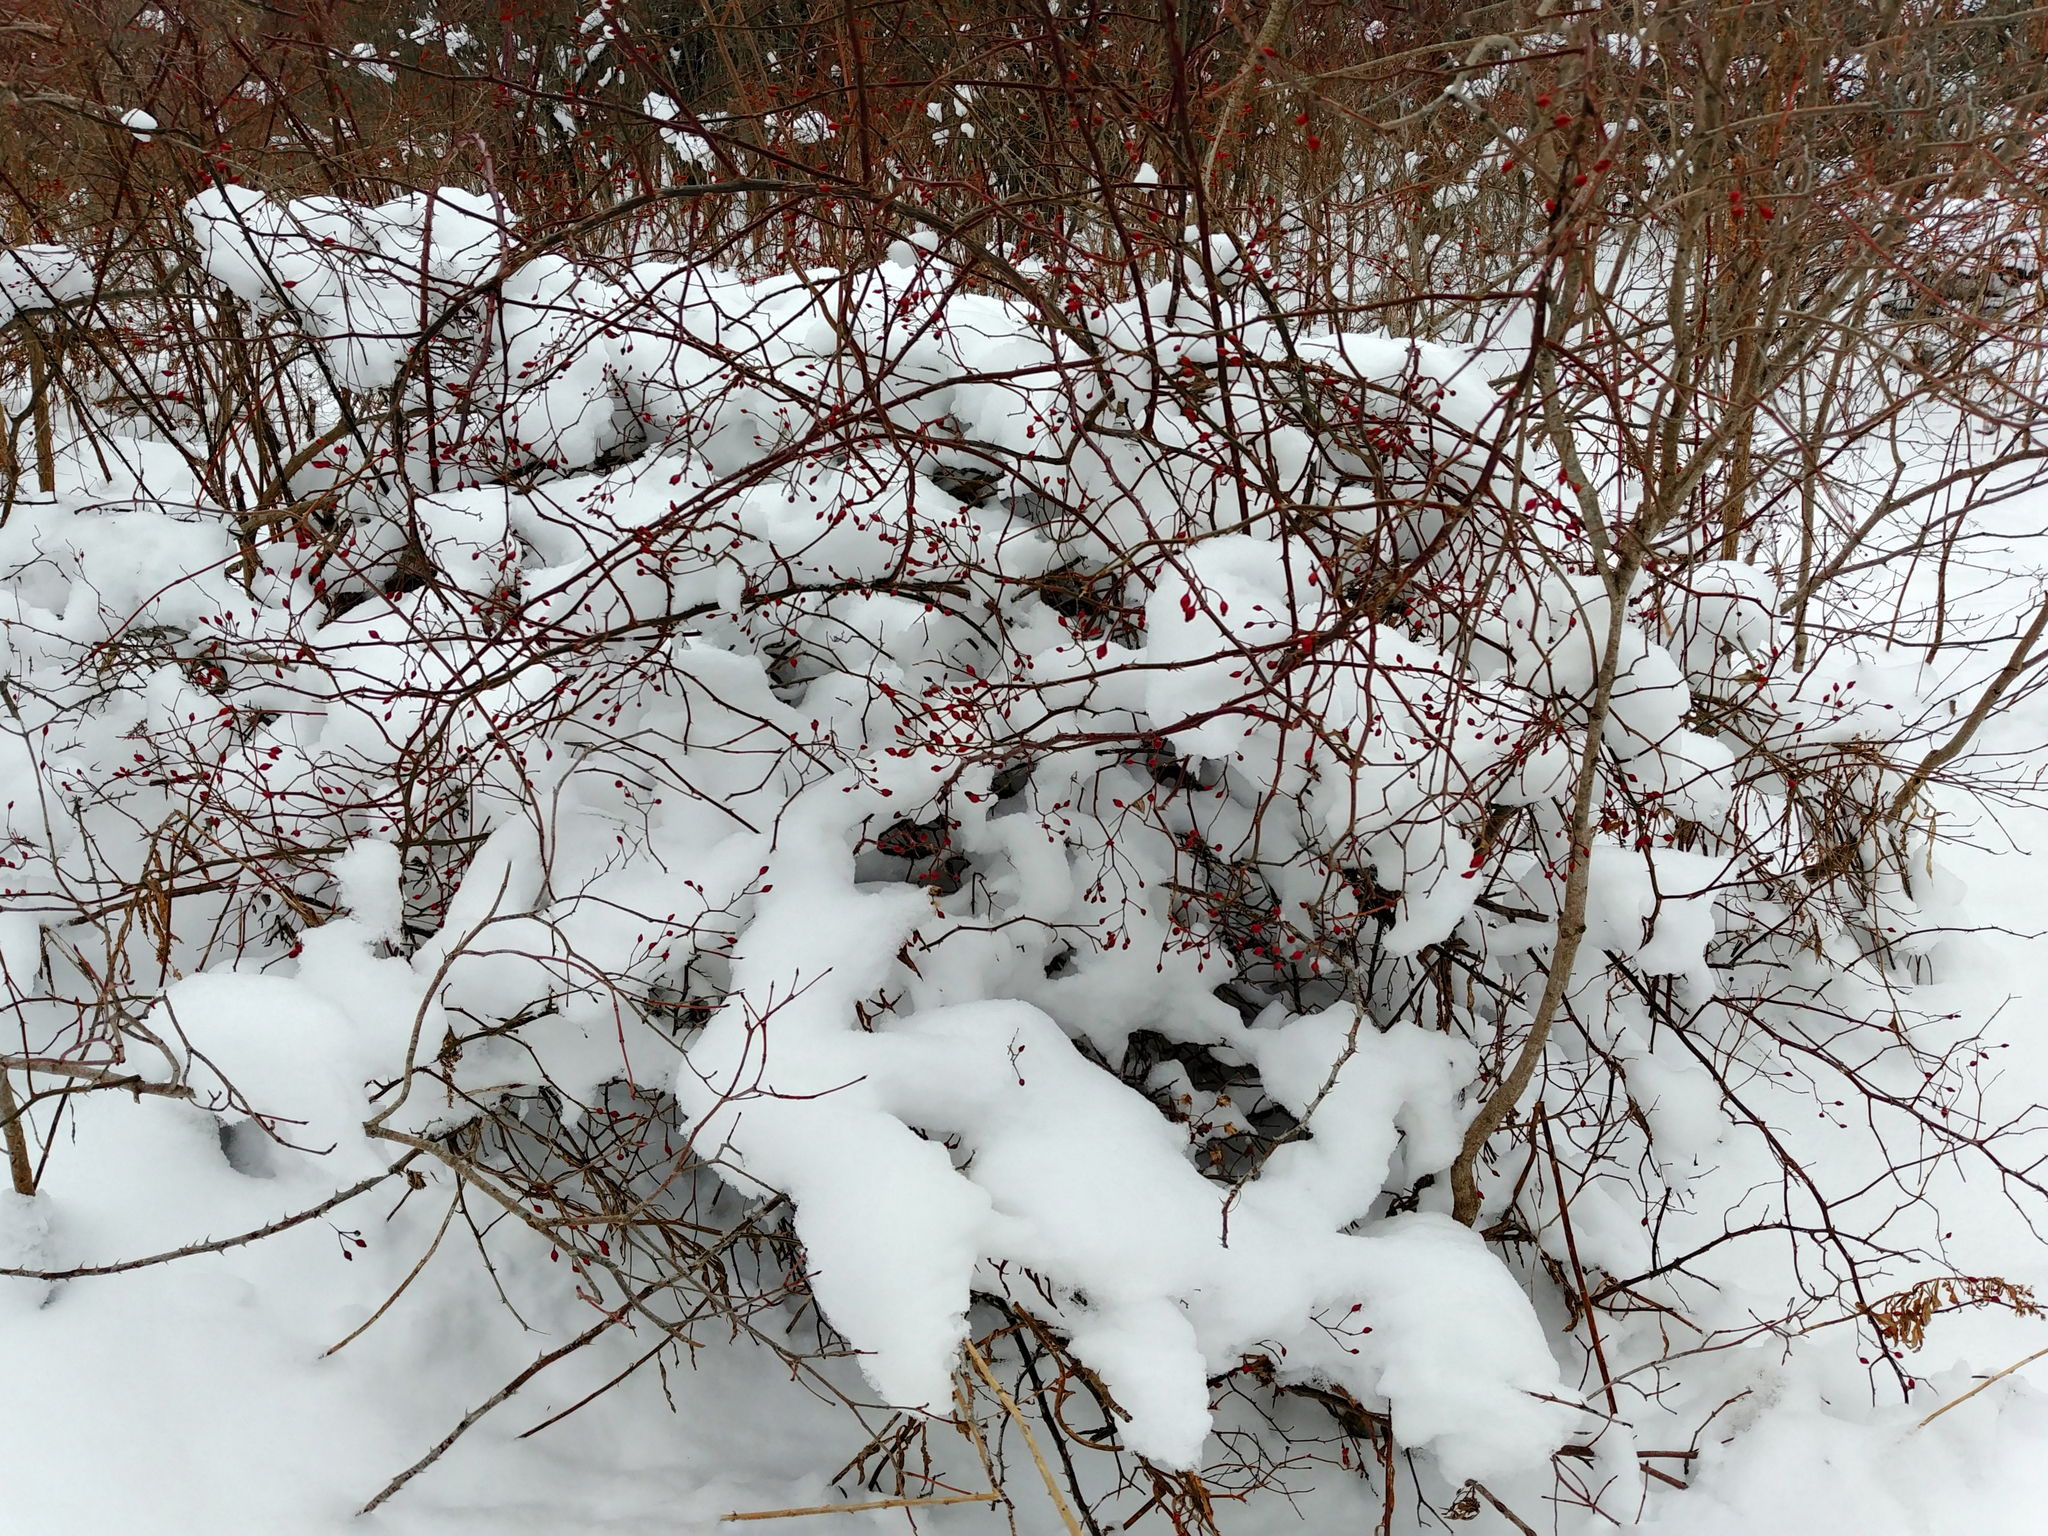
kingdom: Plantae
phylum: Tracheophyta
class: Magnoliopsida
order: Rosales
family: Rosaceae
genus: Rosa
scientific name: Rosa multiflora
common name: Multiflora rose
